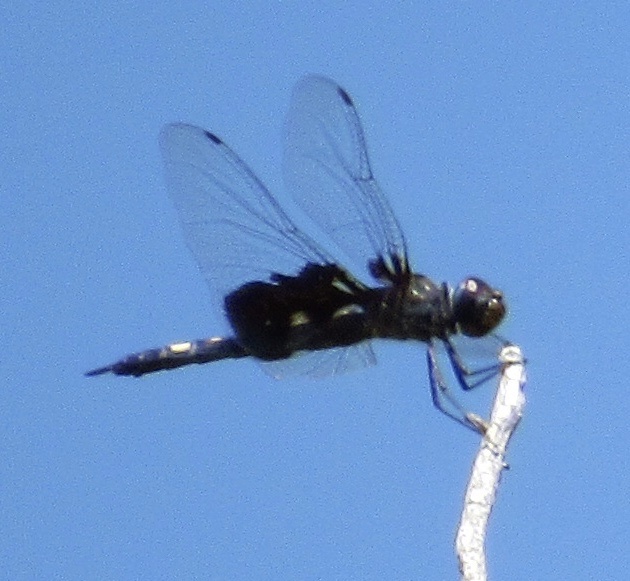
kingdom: Animalia
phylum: Arthropoda
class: Insecta
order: Odonata
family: Libellulidae
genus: Tramea
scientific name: Tramea lacerata
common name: Black saddlebags
